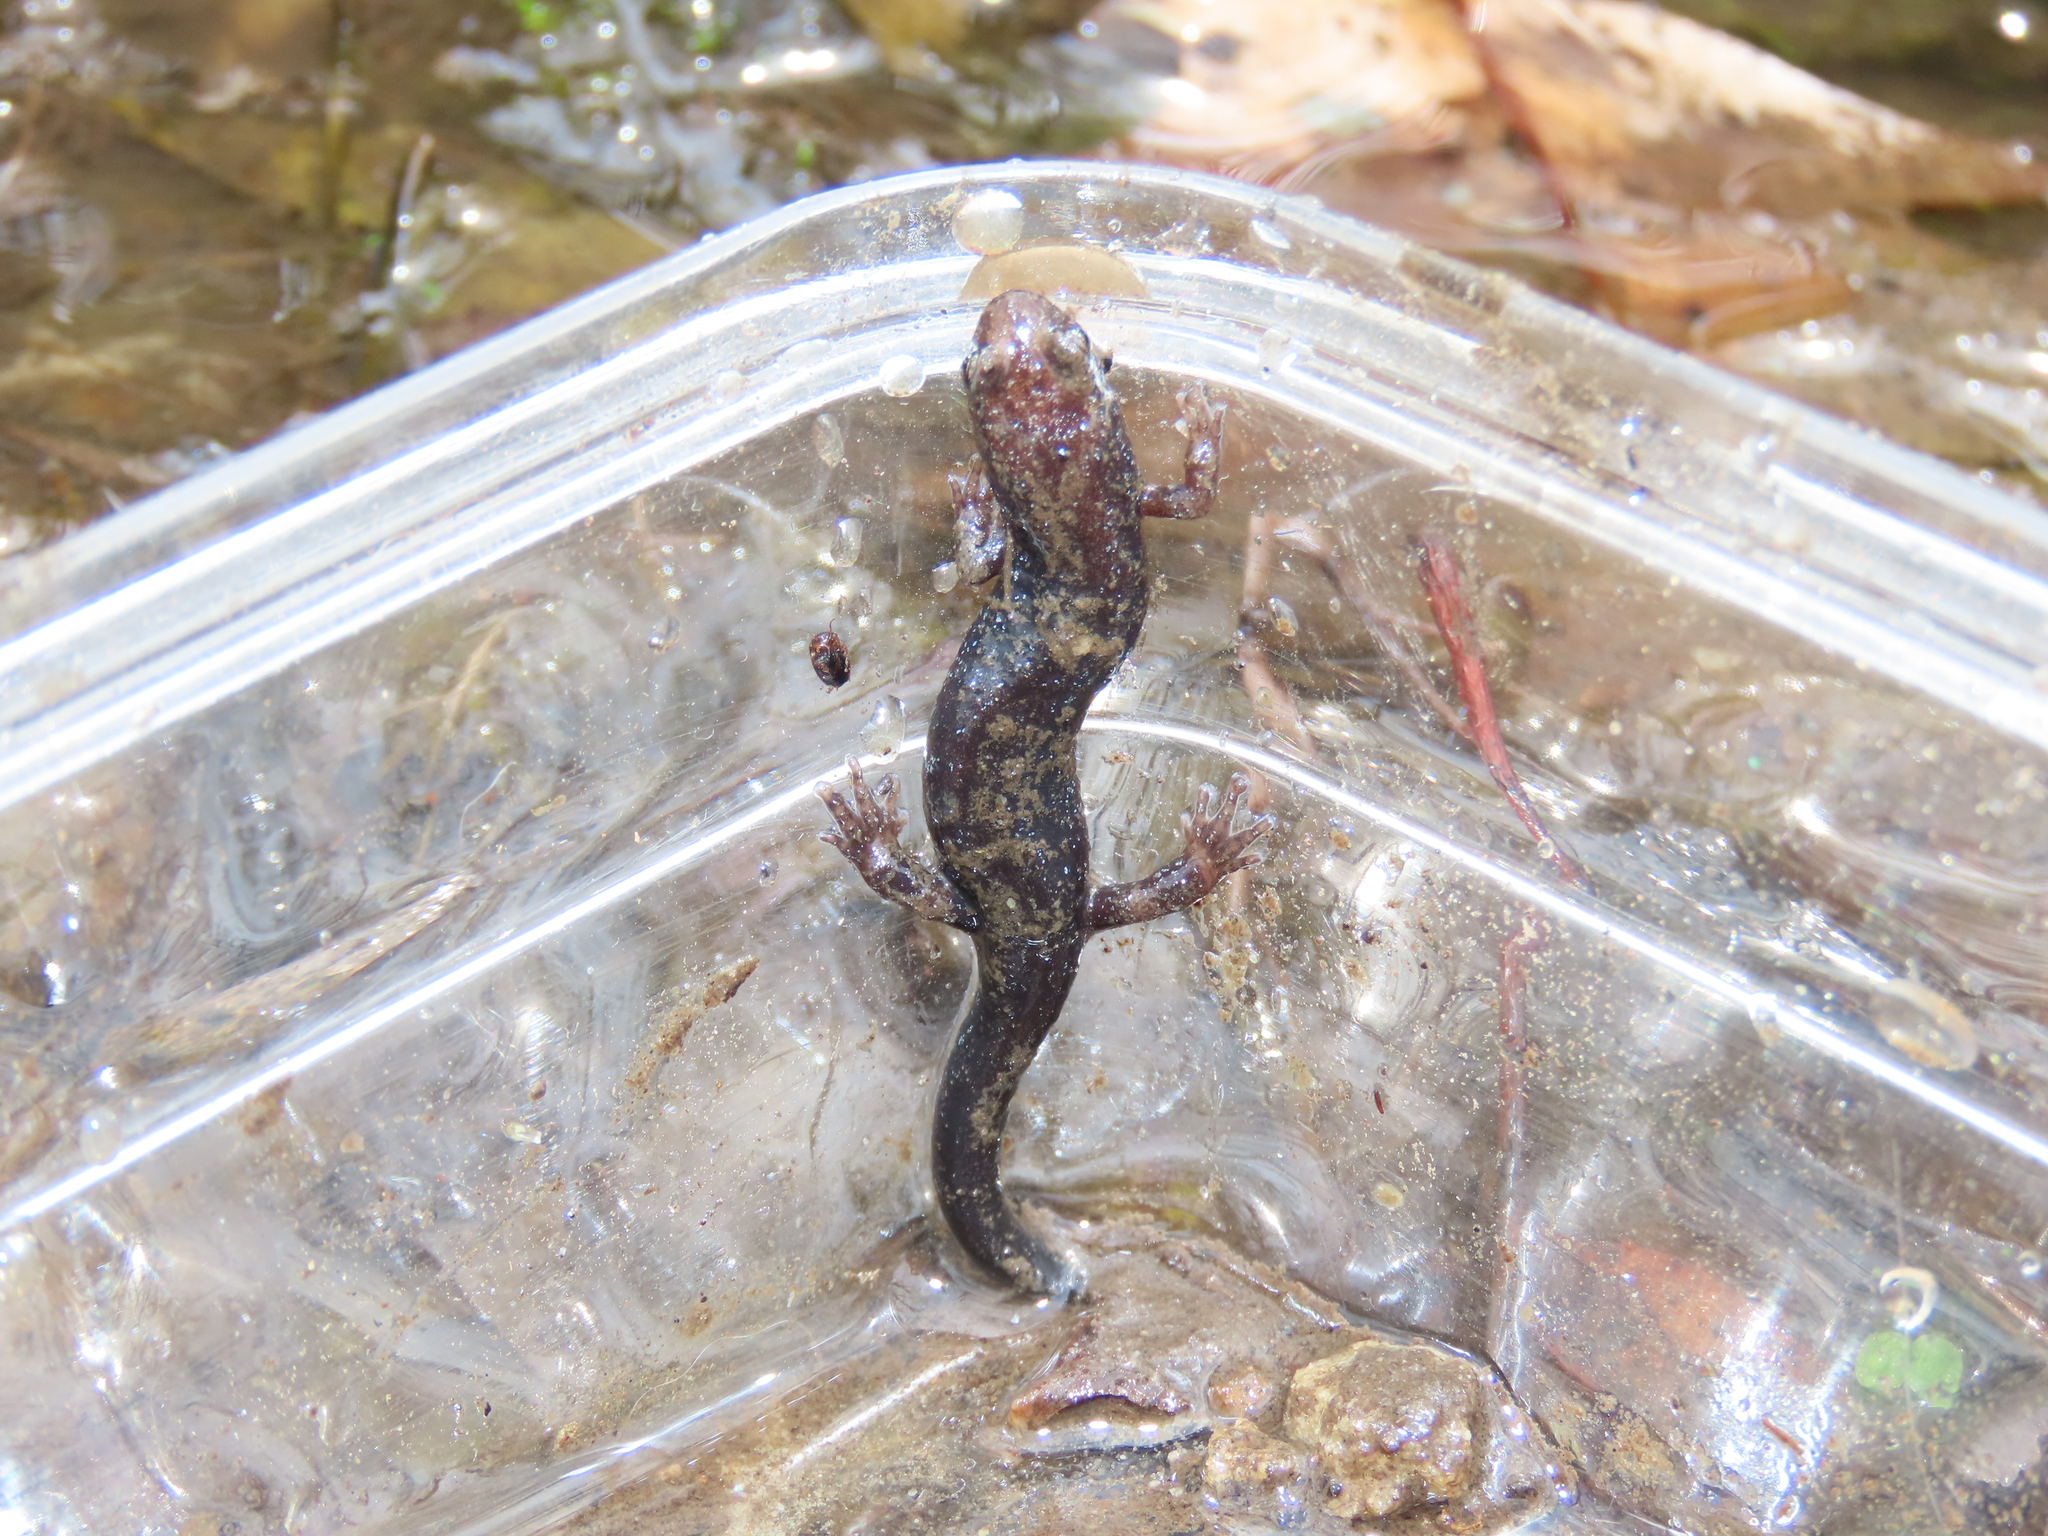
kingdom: Animalia
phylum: Chordata
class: Amphibia
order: Caudata
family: Plethodontidae
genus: Desmognathus
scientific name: Desmognathus ochrophaeus
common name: Allegheny mountain dusky salamander
